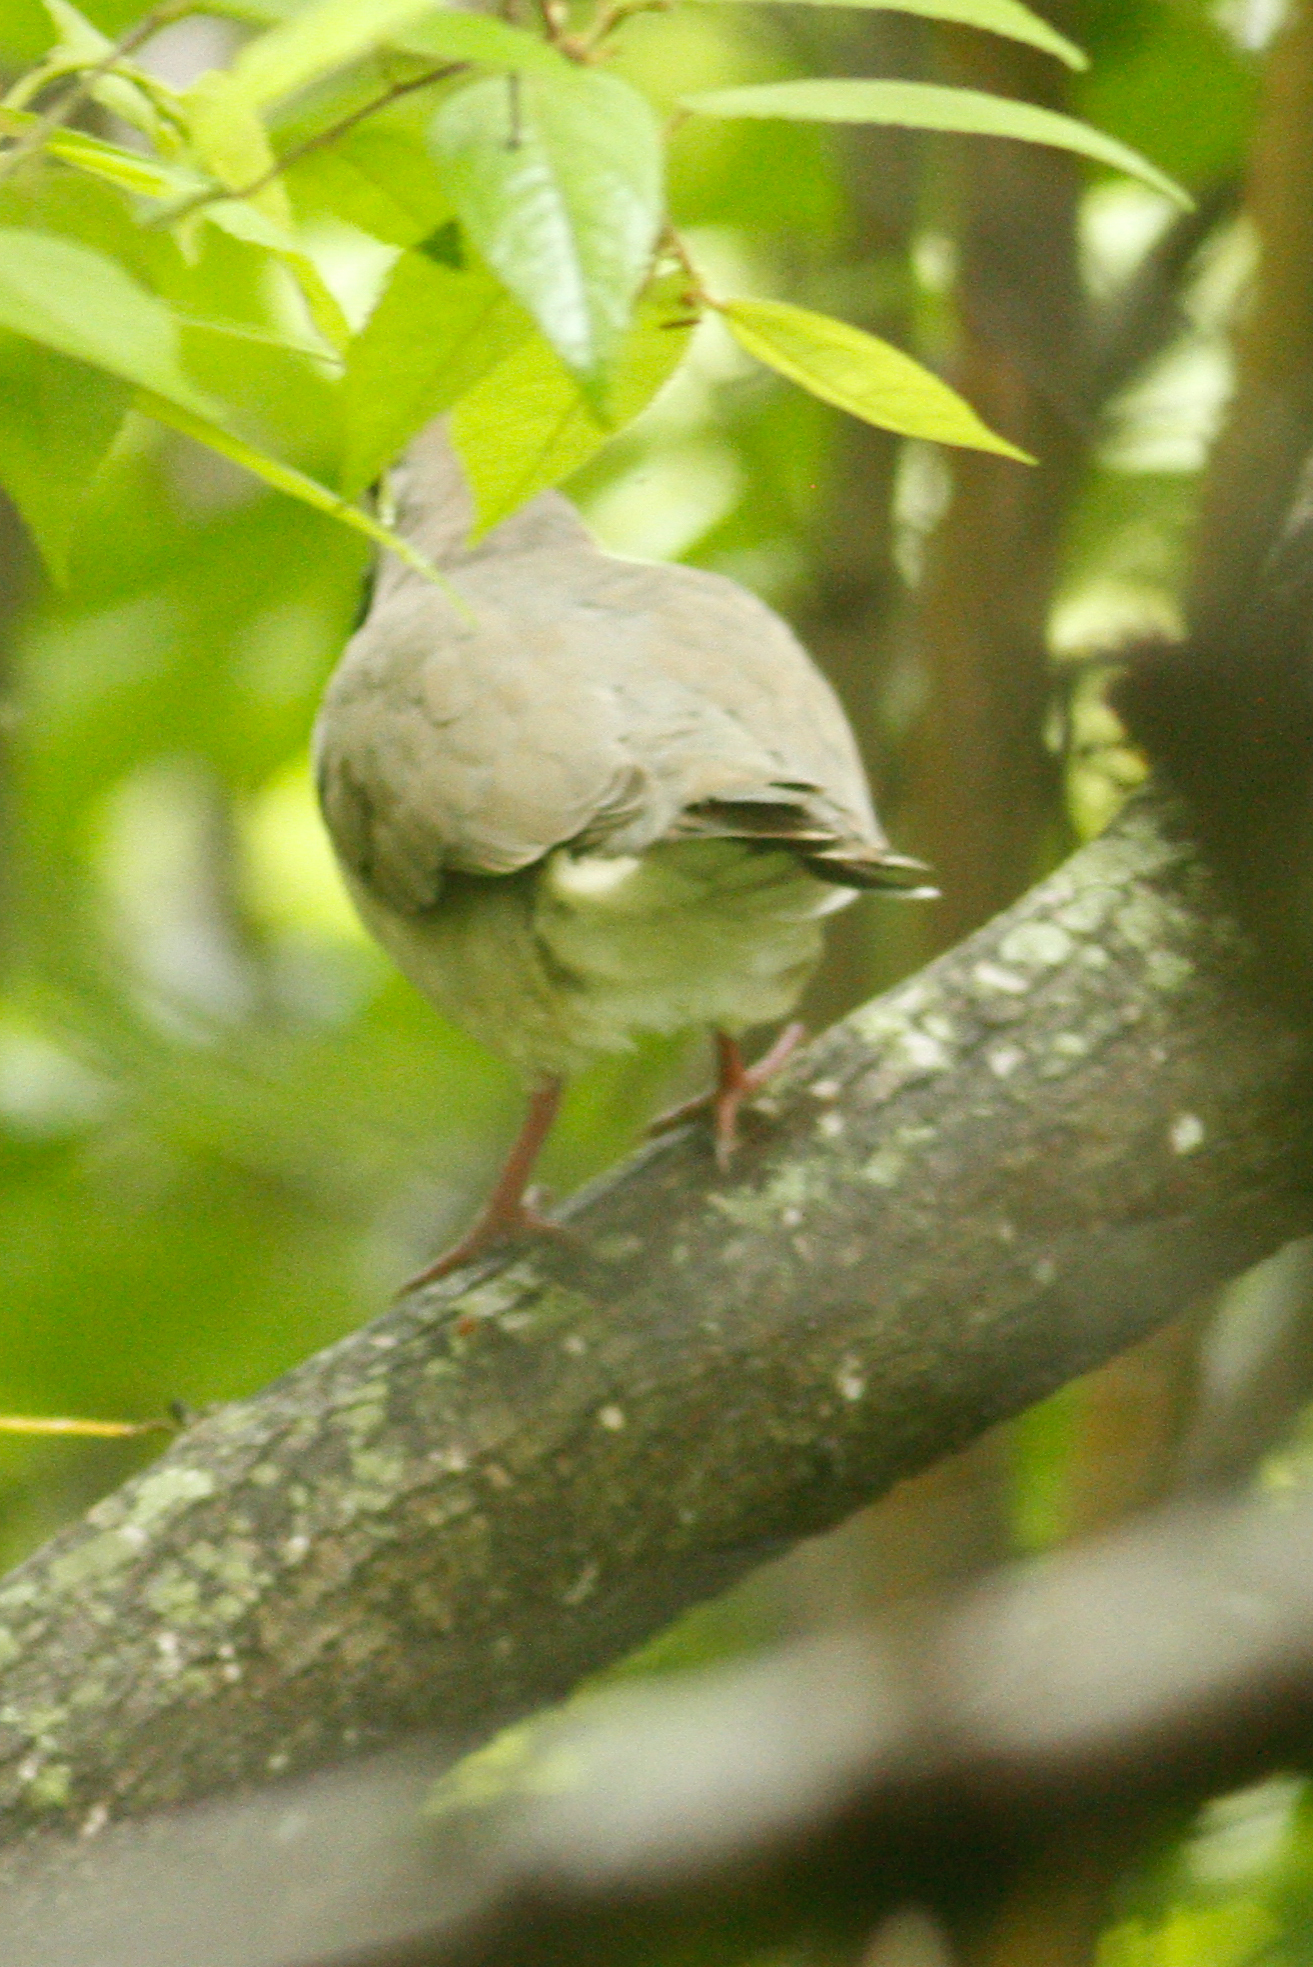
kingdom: Animalia
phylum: Chordata
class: Aves
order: Columbiformes
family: Columbidae
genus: Leptotila
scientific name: Leptotila verreauxi
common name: White-tipped dove
